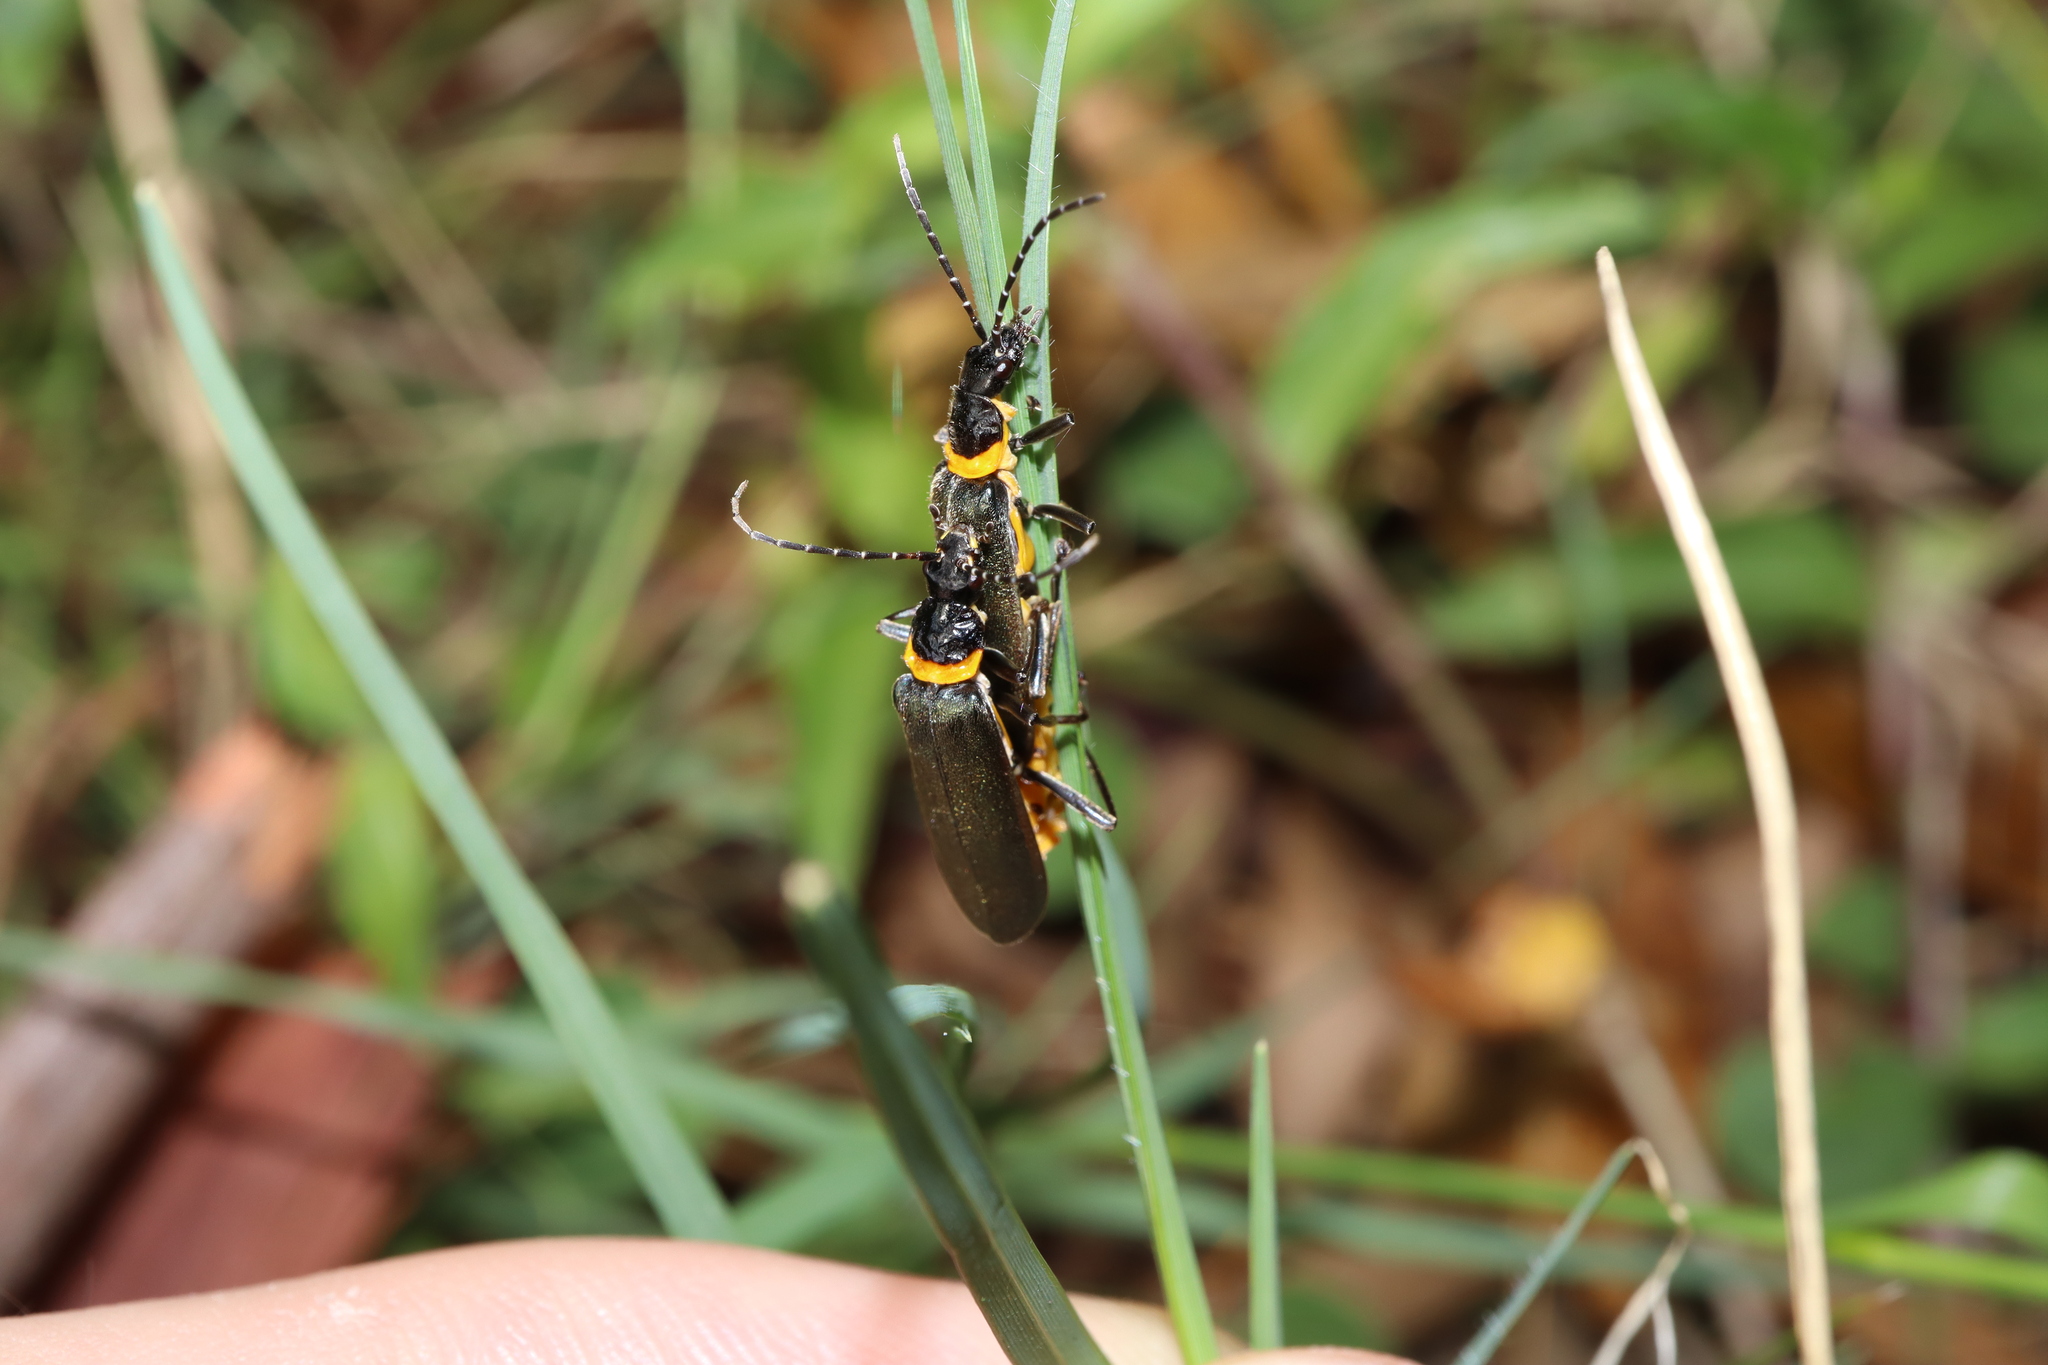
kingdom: Animalia
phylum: Arthropoda
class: Insecta
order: Coleoptera
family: Cantharidae
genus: Chauliognathus
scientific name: Chauliognathus
